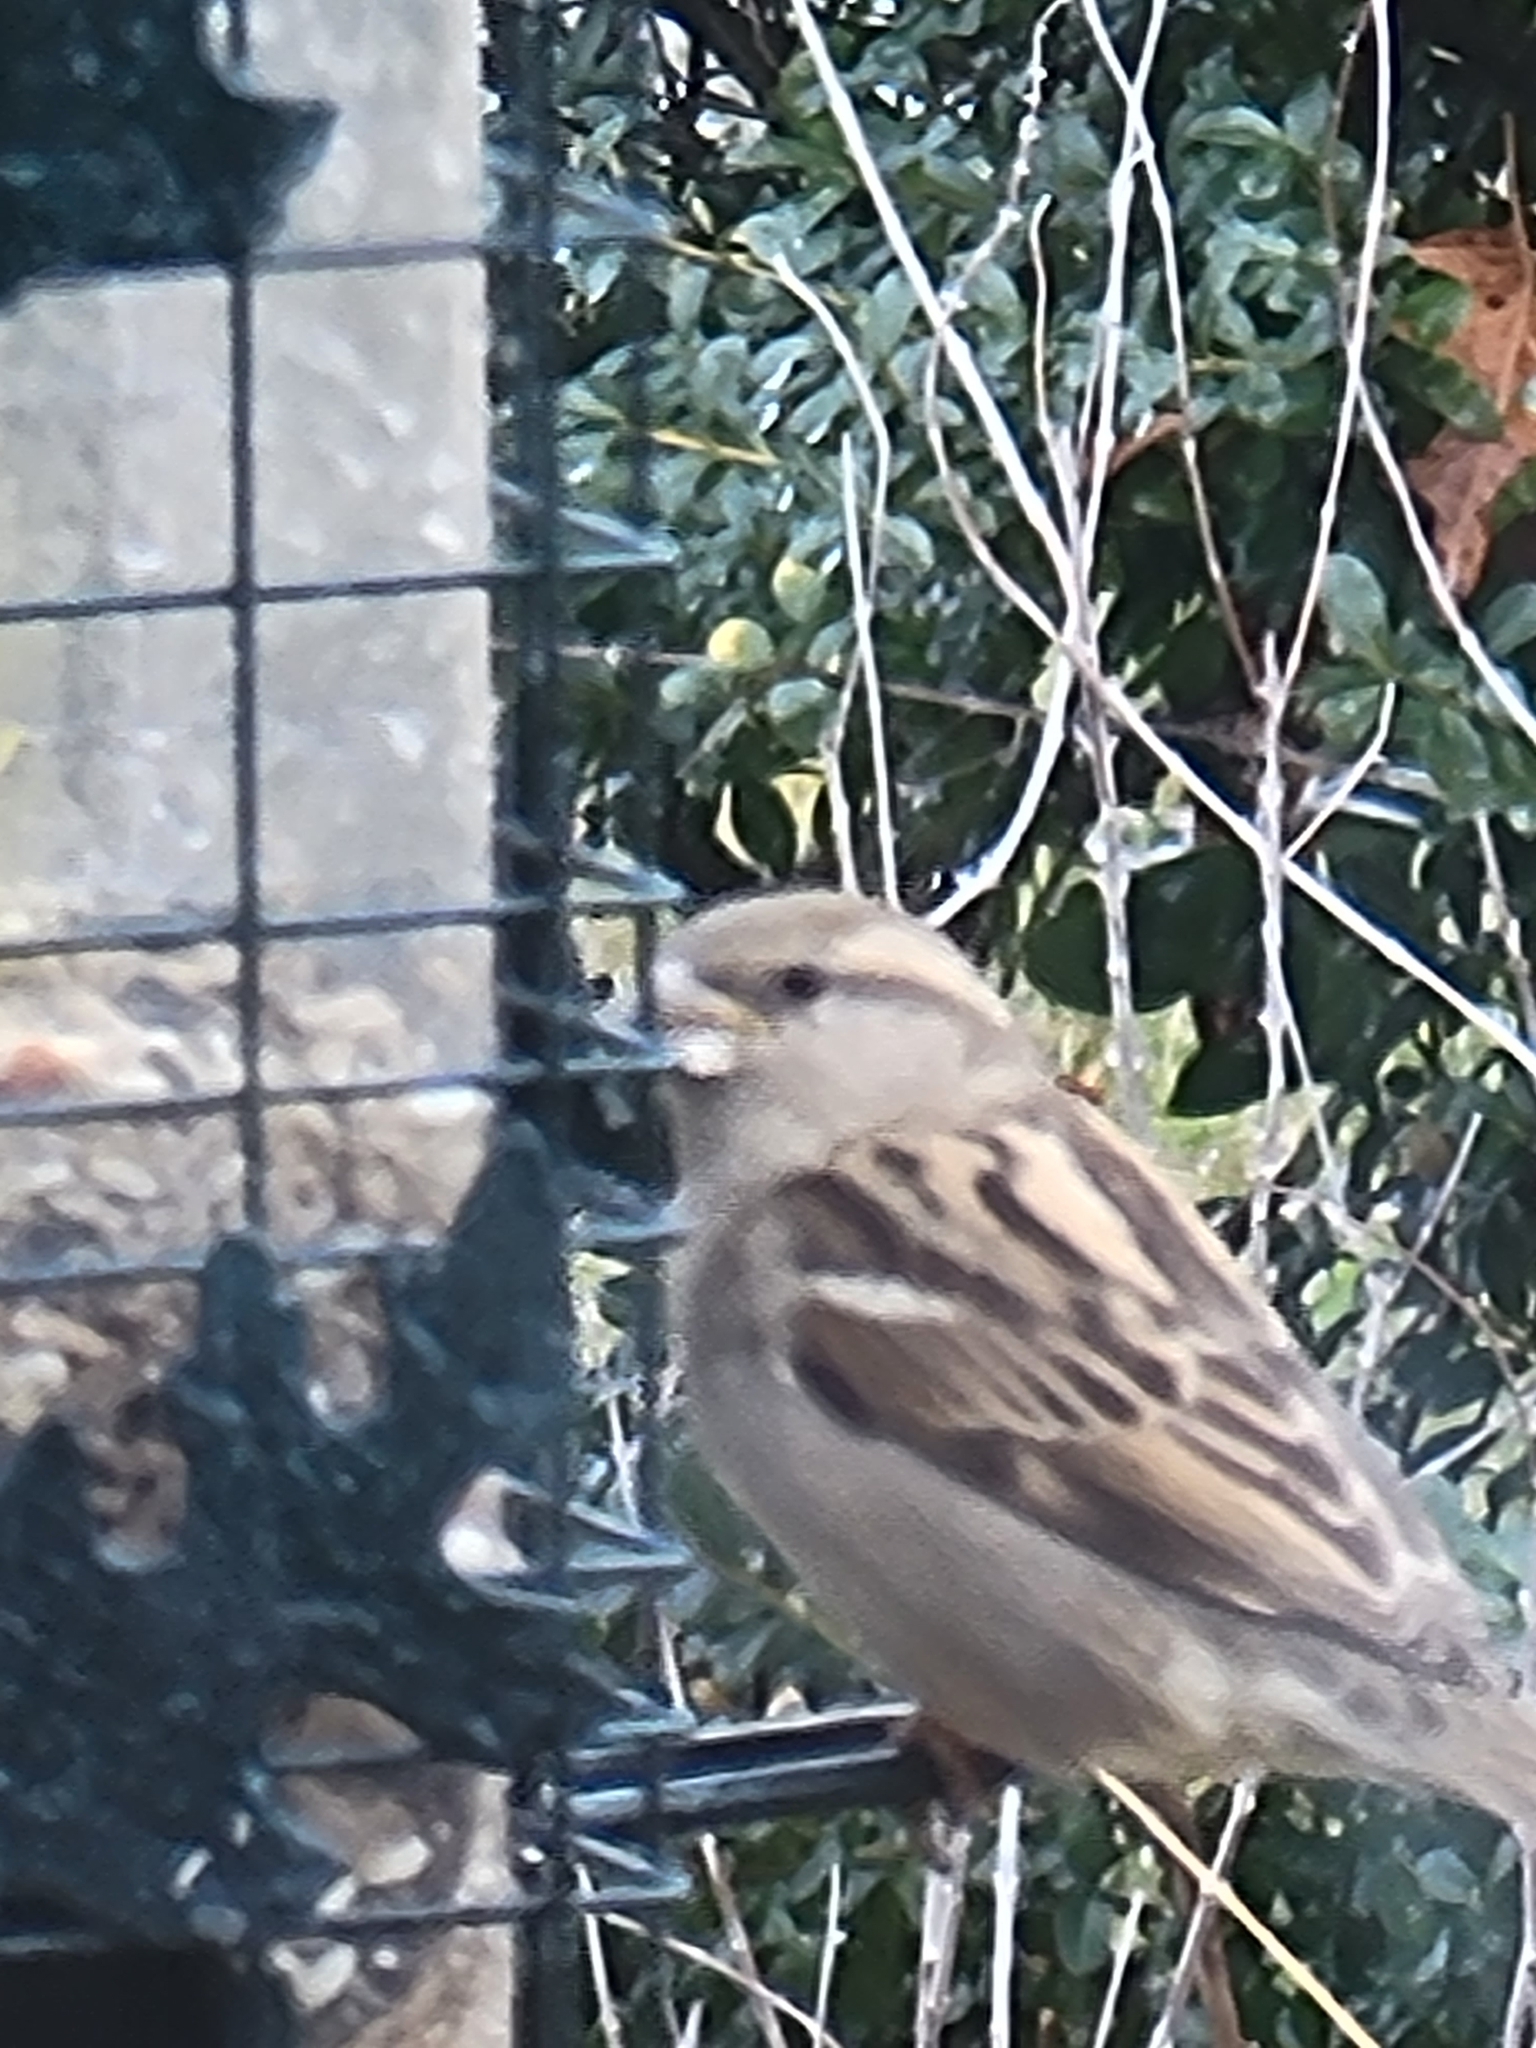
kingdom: Animalia
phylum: Chordata
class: Aves
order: Passeriformes
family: Passeridae
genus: Passer
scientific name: Passer domesticus
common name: House sparrow
